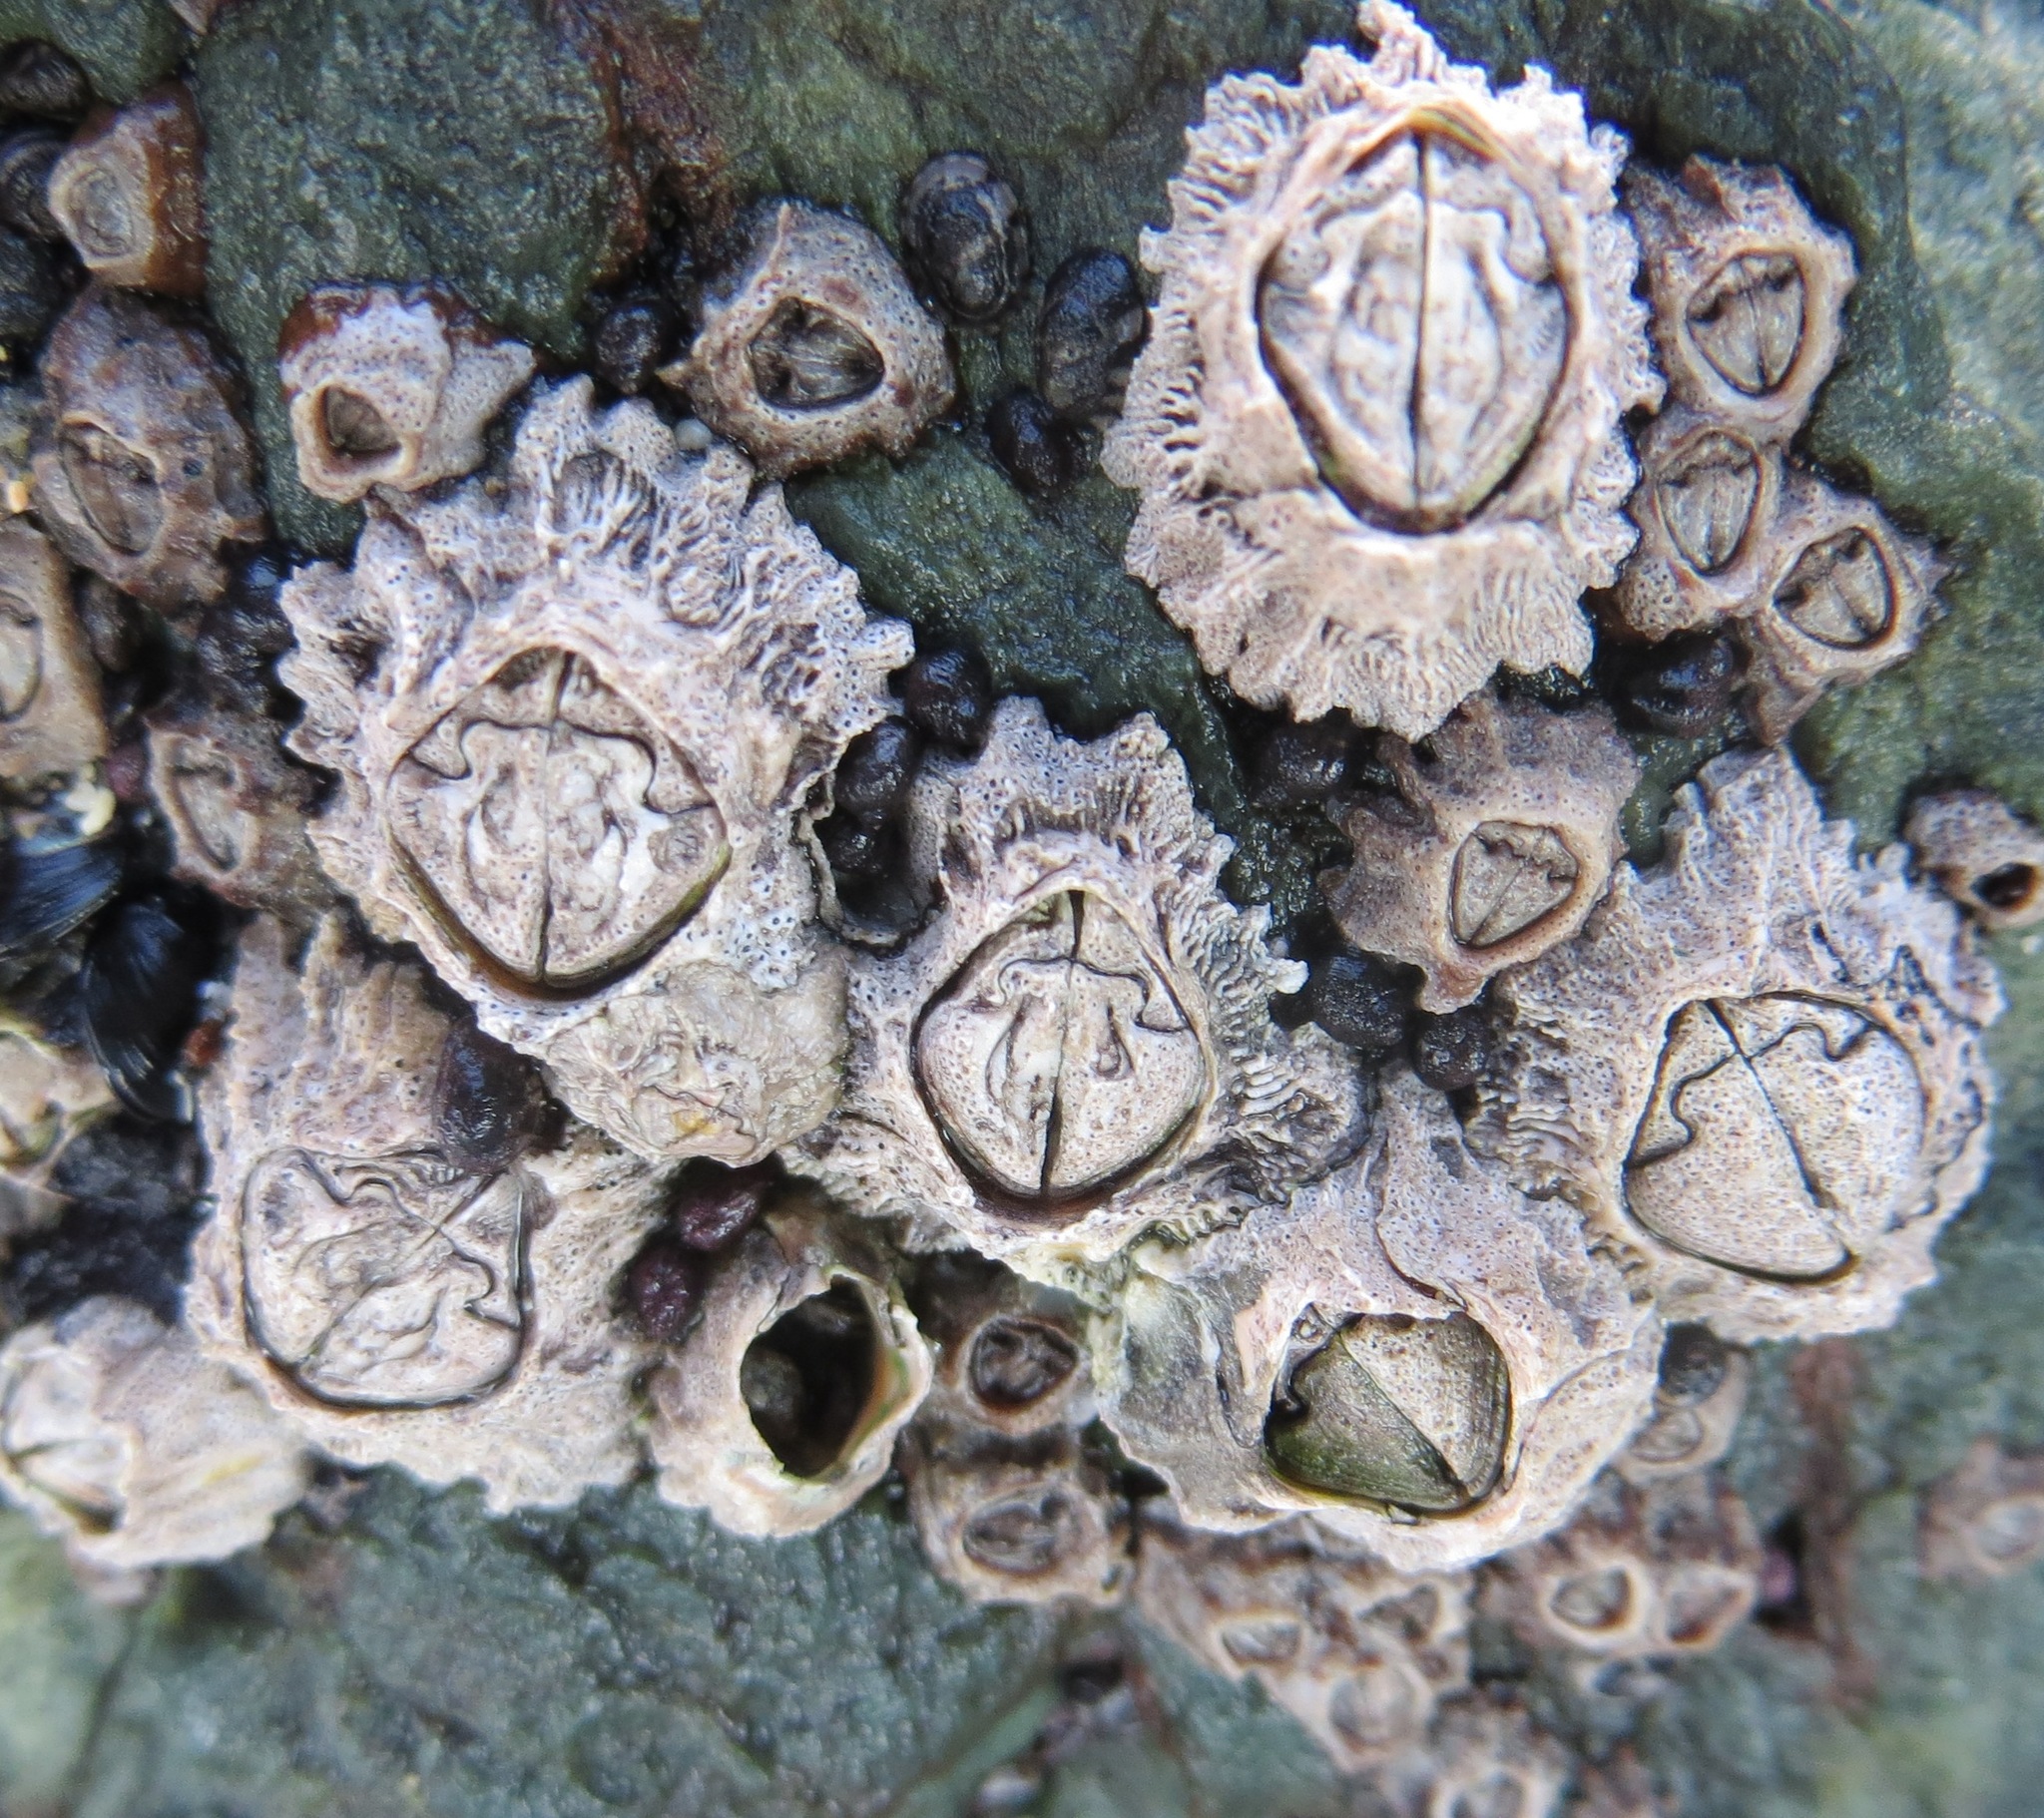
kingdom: Animalia
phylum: Arthropoda
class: Maxillopoda
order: Sessilia
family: Tetraclitidae
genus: Epopella
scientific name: Epopella plicata
